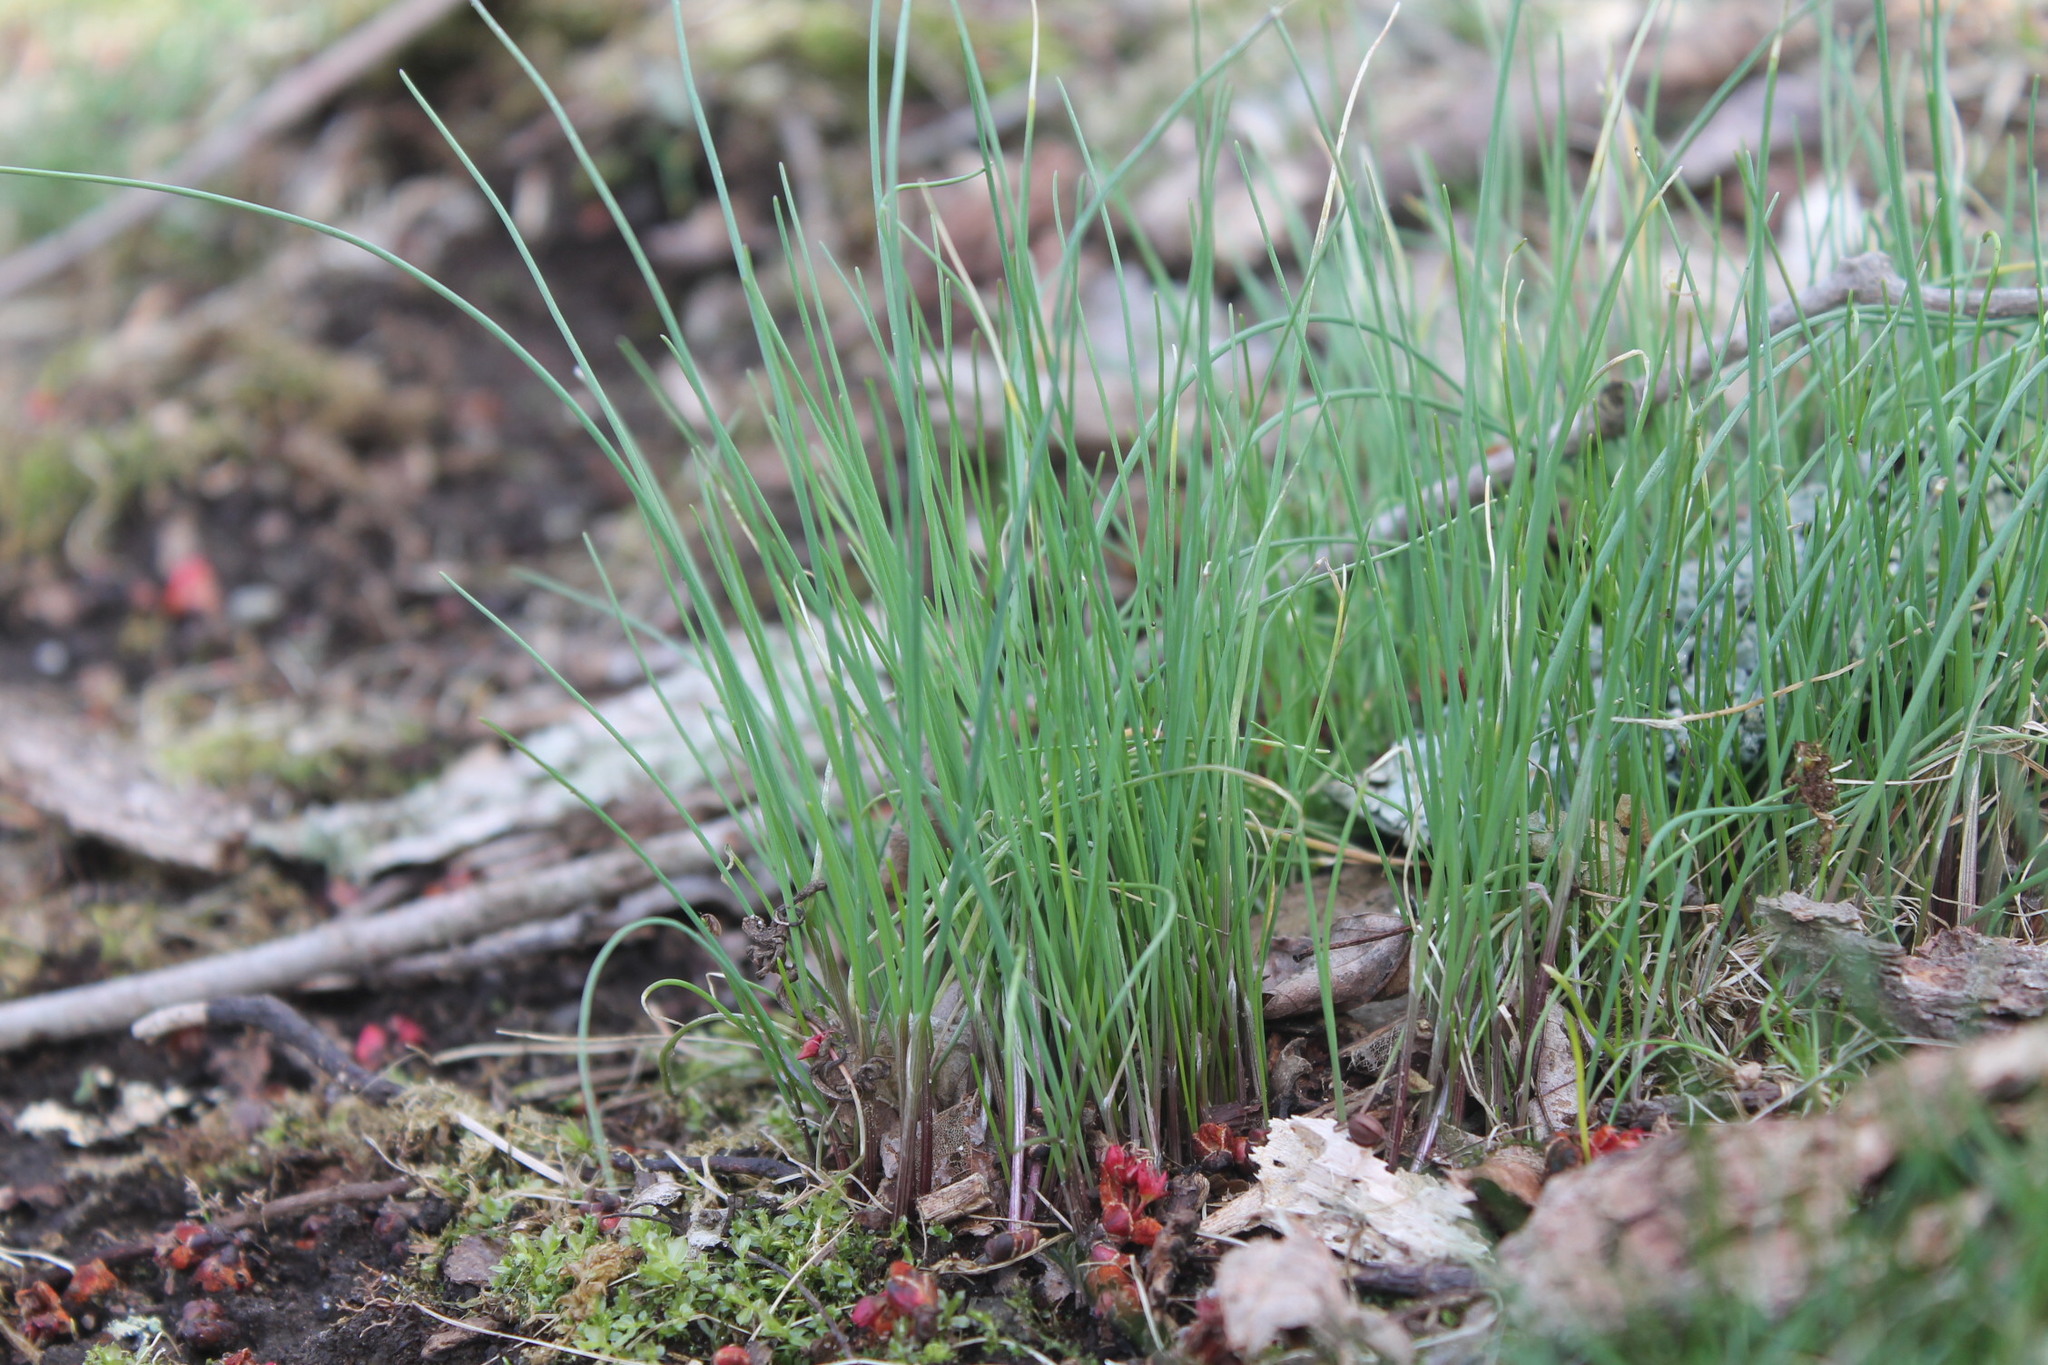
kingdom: Plantae
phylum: Tracheophyta
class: Liliopsida
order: Asparagales
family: Amaryllidaceae
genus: Allium
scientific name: Allium vineale
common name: Crow garlic
